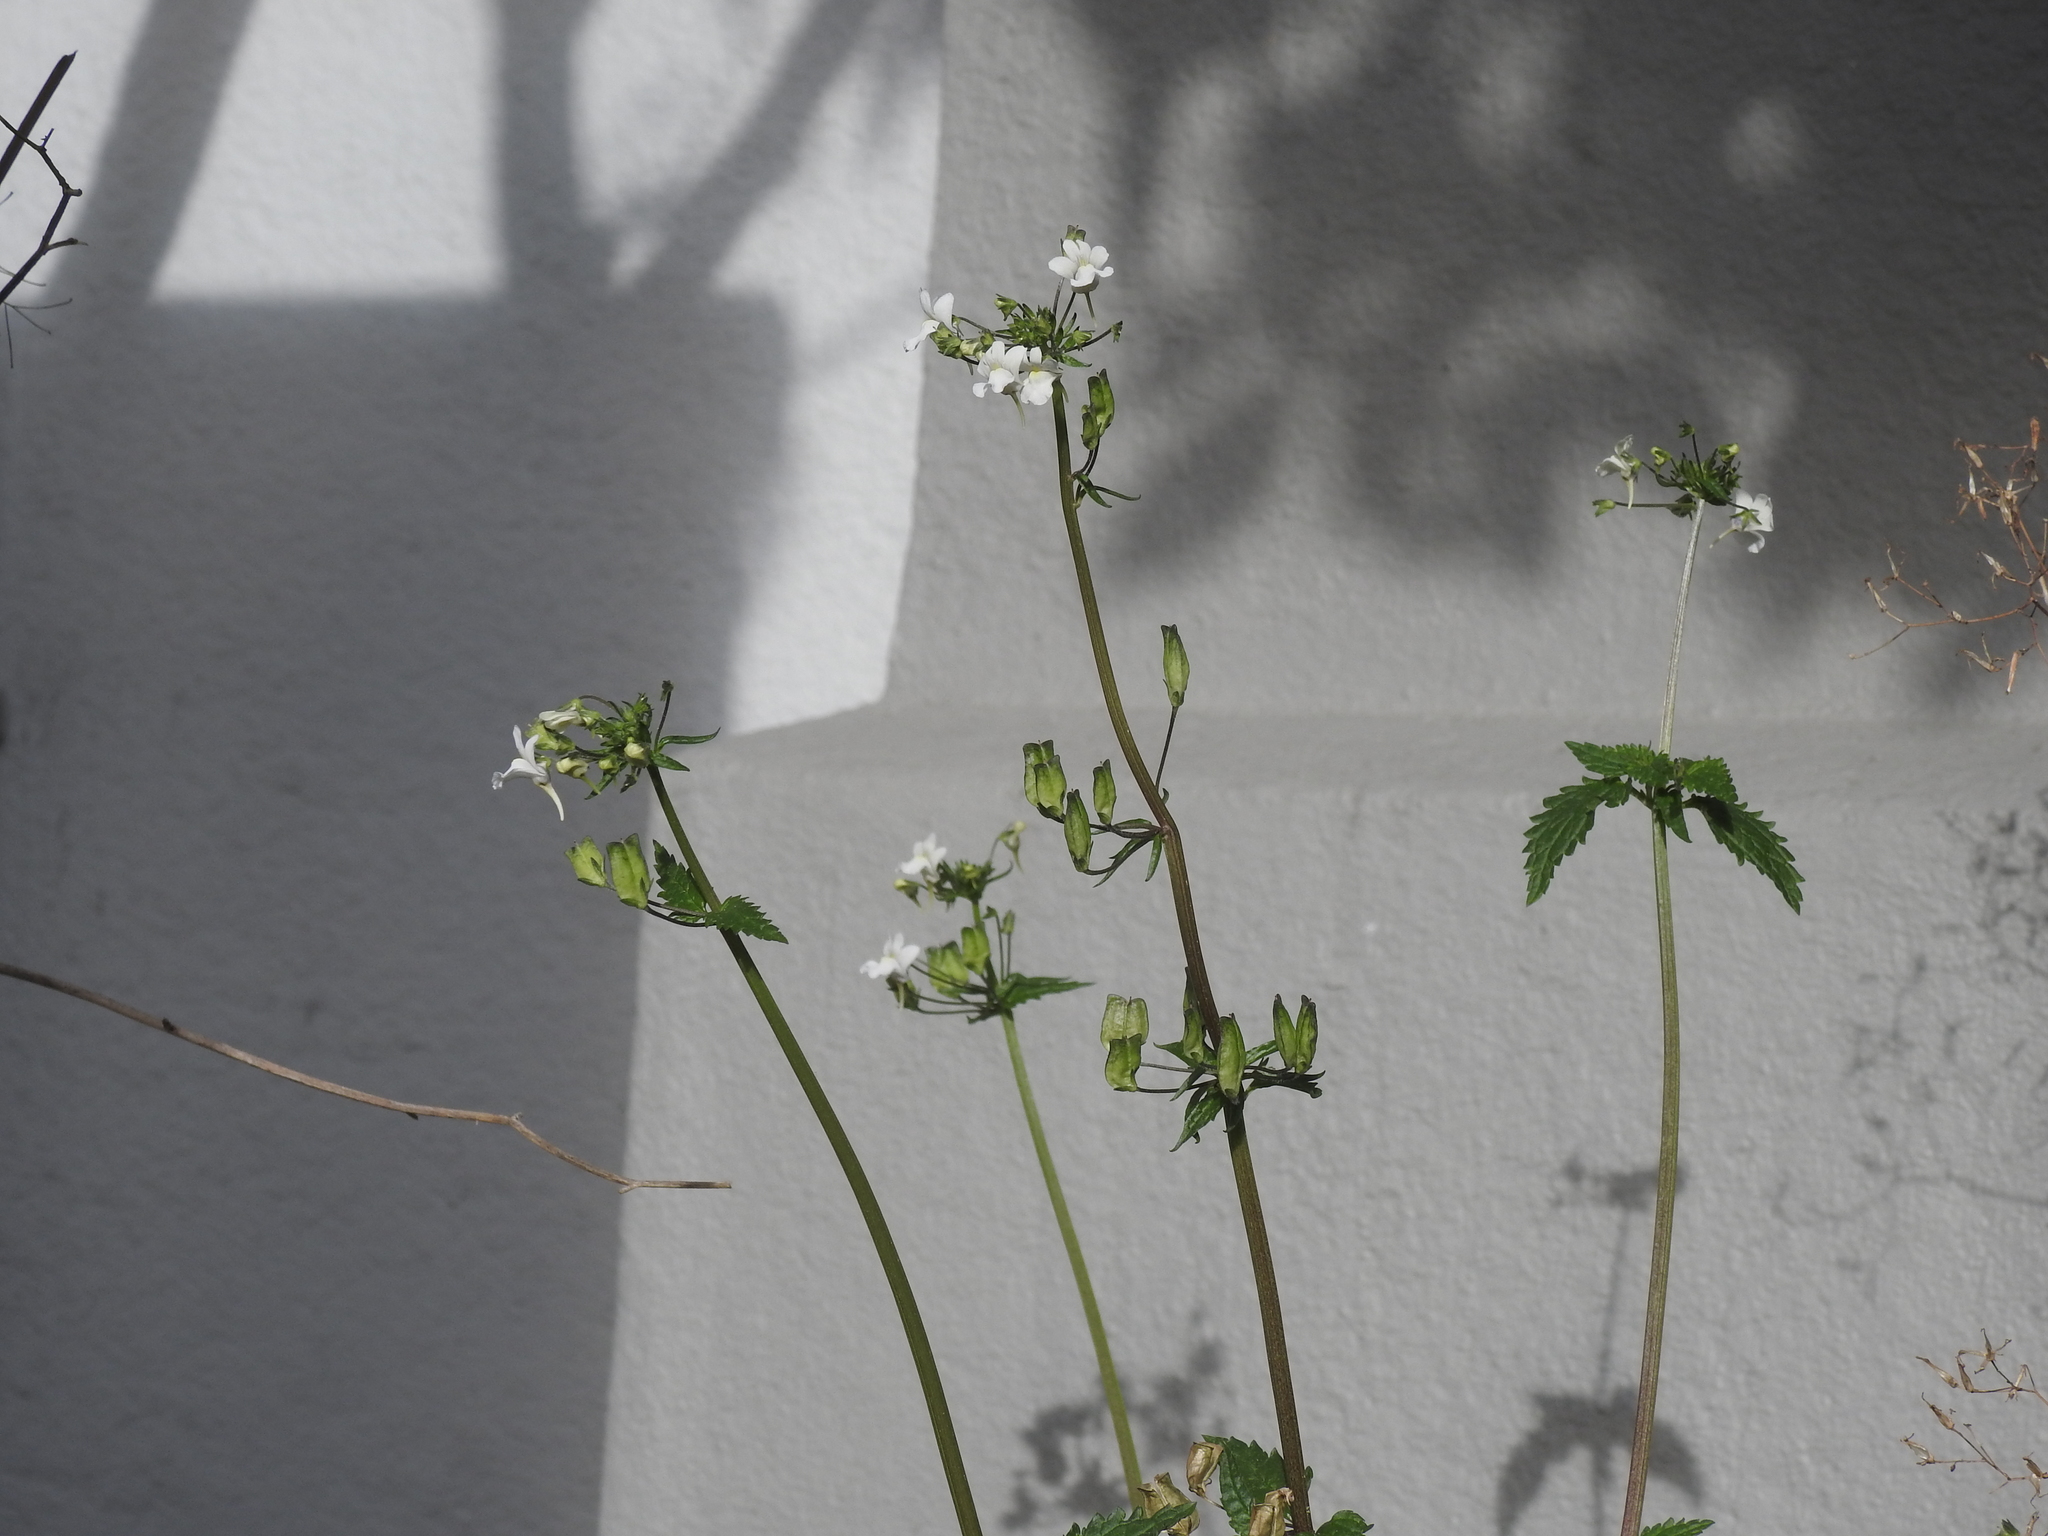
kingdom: Plantae
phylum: Tracheophyta
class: Magnoliopsida
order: Lamiales
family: Scrophulariaceae
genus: Nemesia
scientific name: Nemesia floribunda
